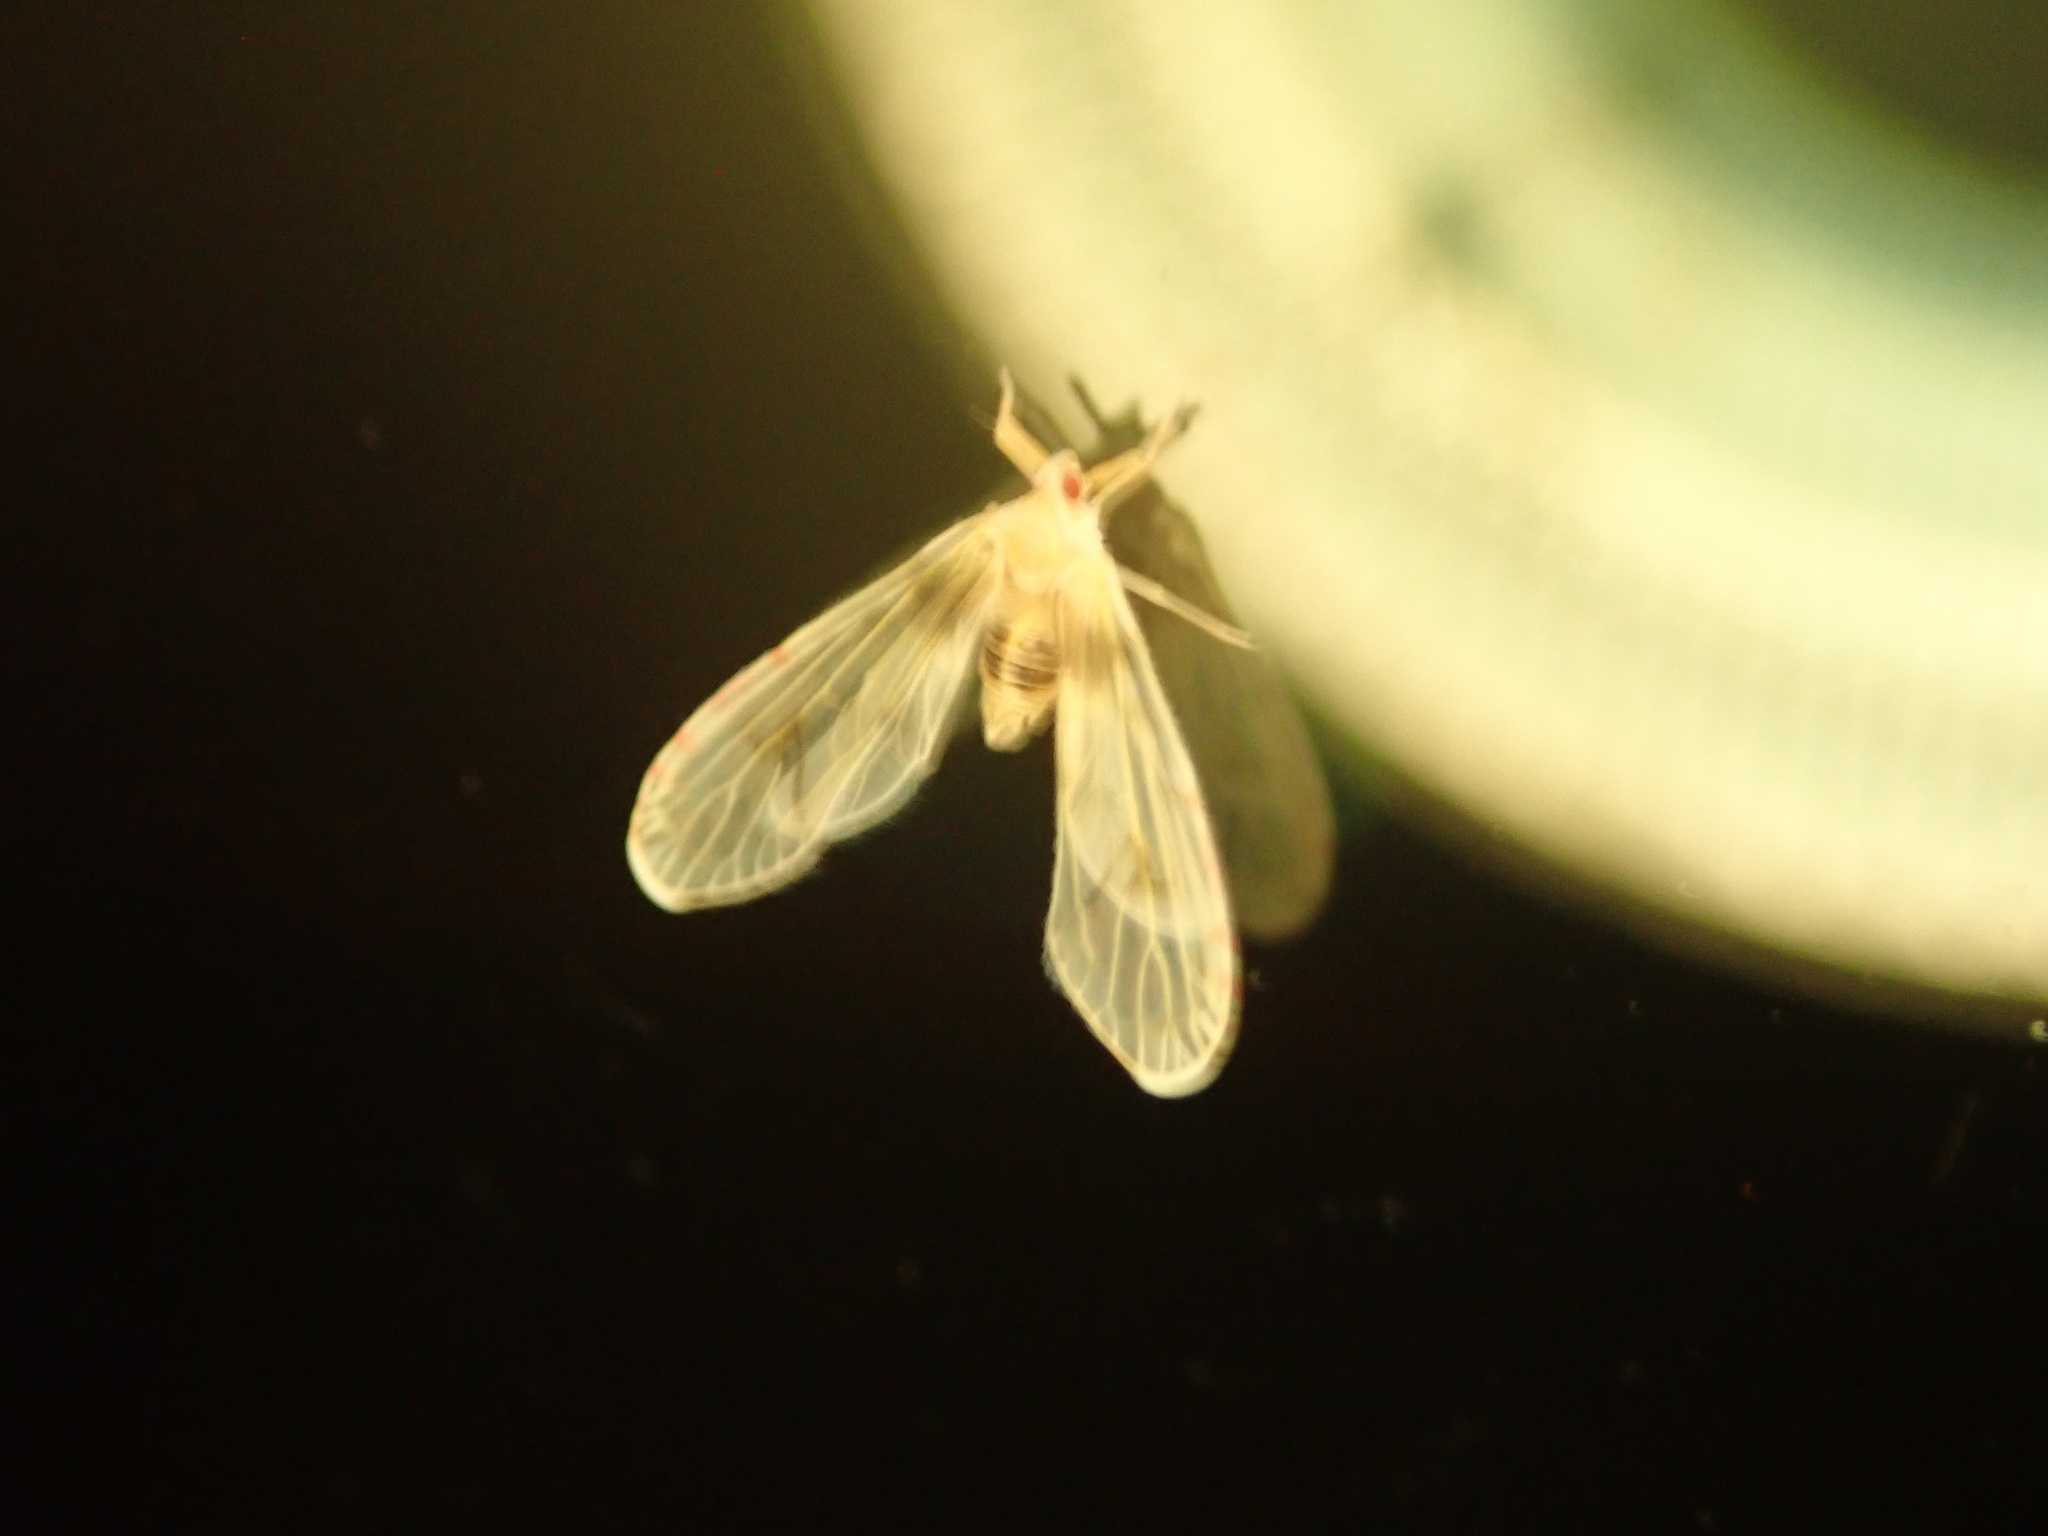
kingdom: Animalia
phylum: Arthropoda
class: Insecta
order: Hemiptera
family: Derbidae
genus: Anotia
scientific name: Anotia burnetii
